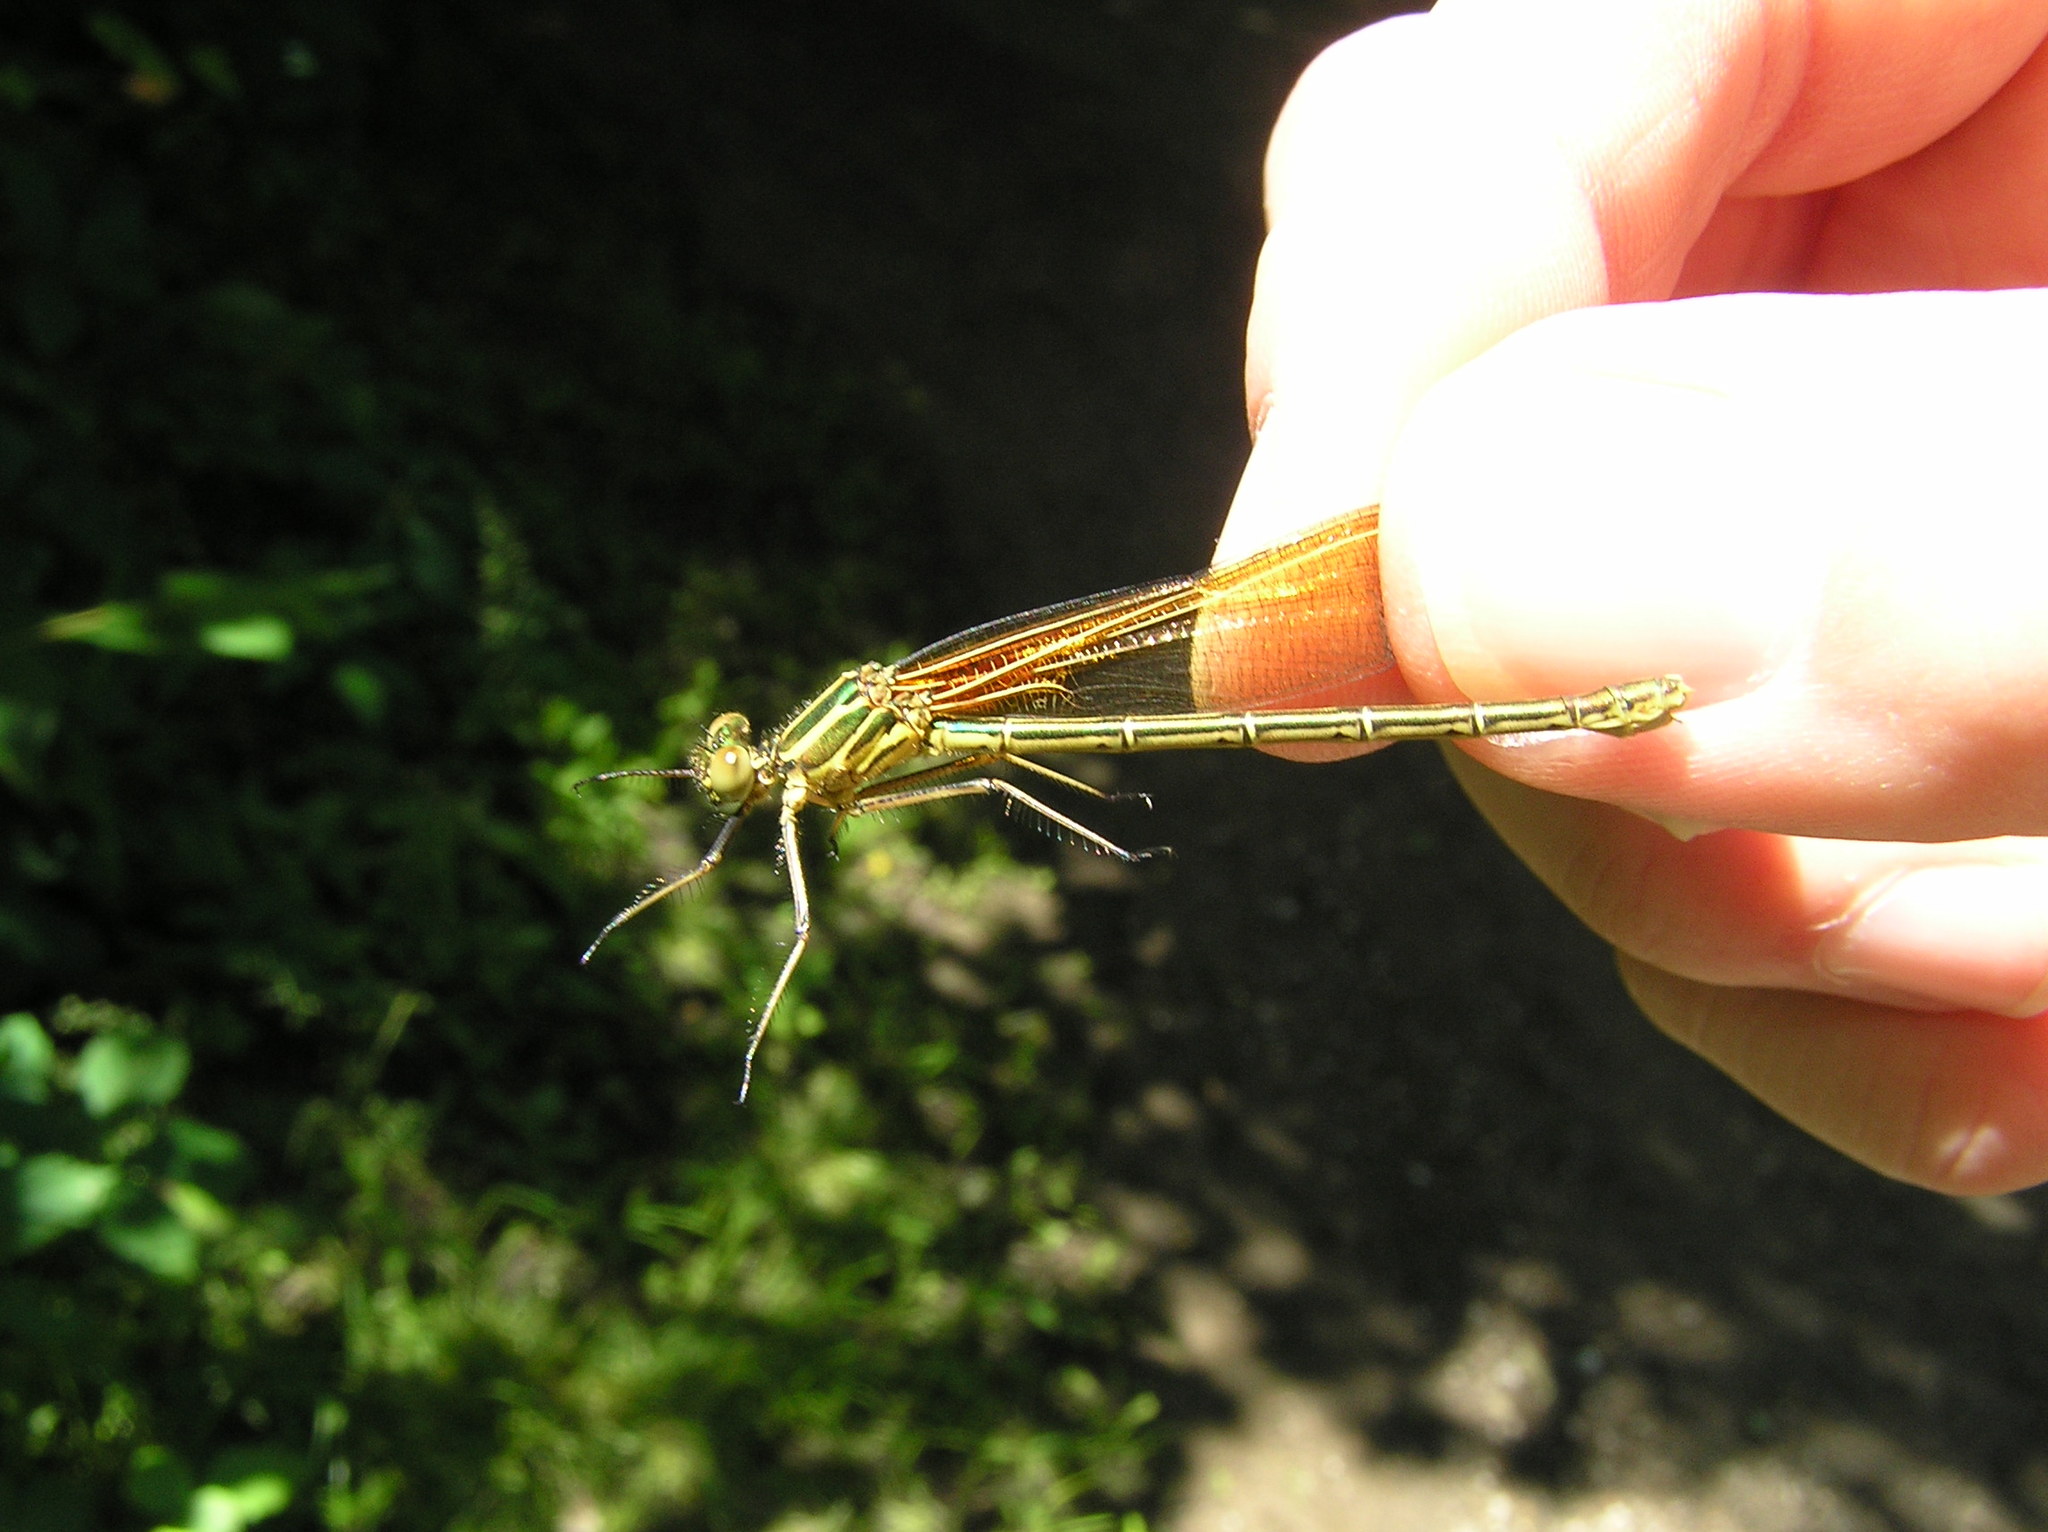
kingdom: Animalia
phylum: Arthropoda
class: Insecta
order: Odonata
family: Calopterygidae
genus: Hetaerina
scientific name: Hetaerina americana
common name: American rubyspot
